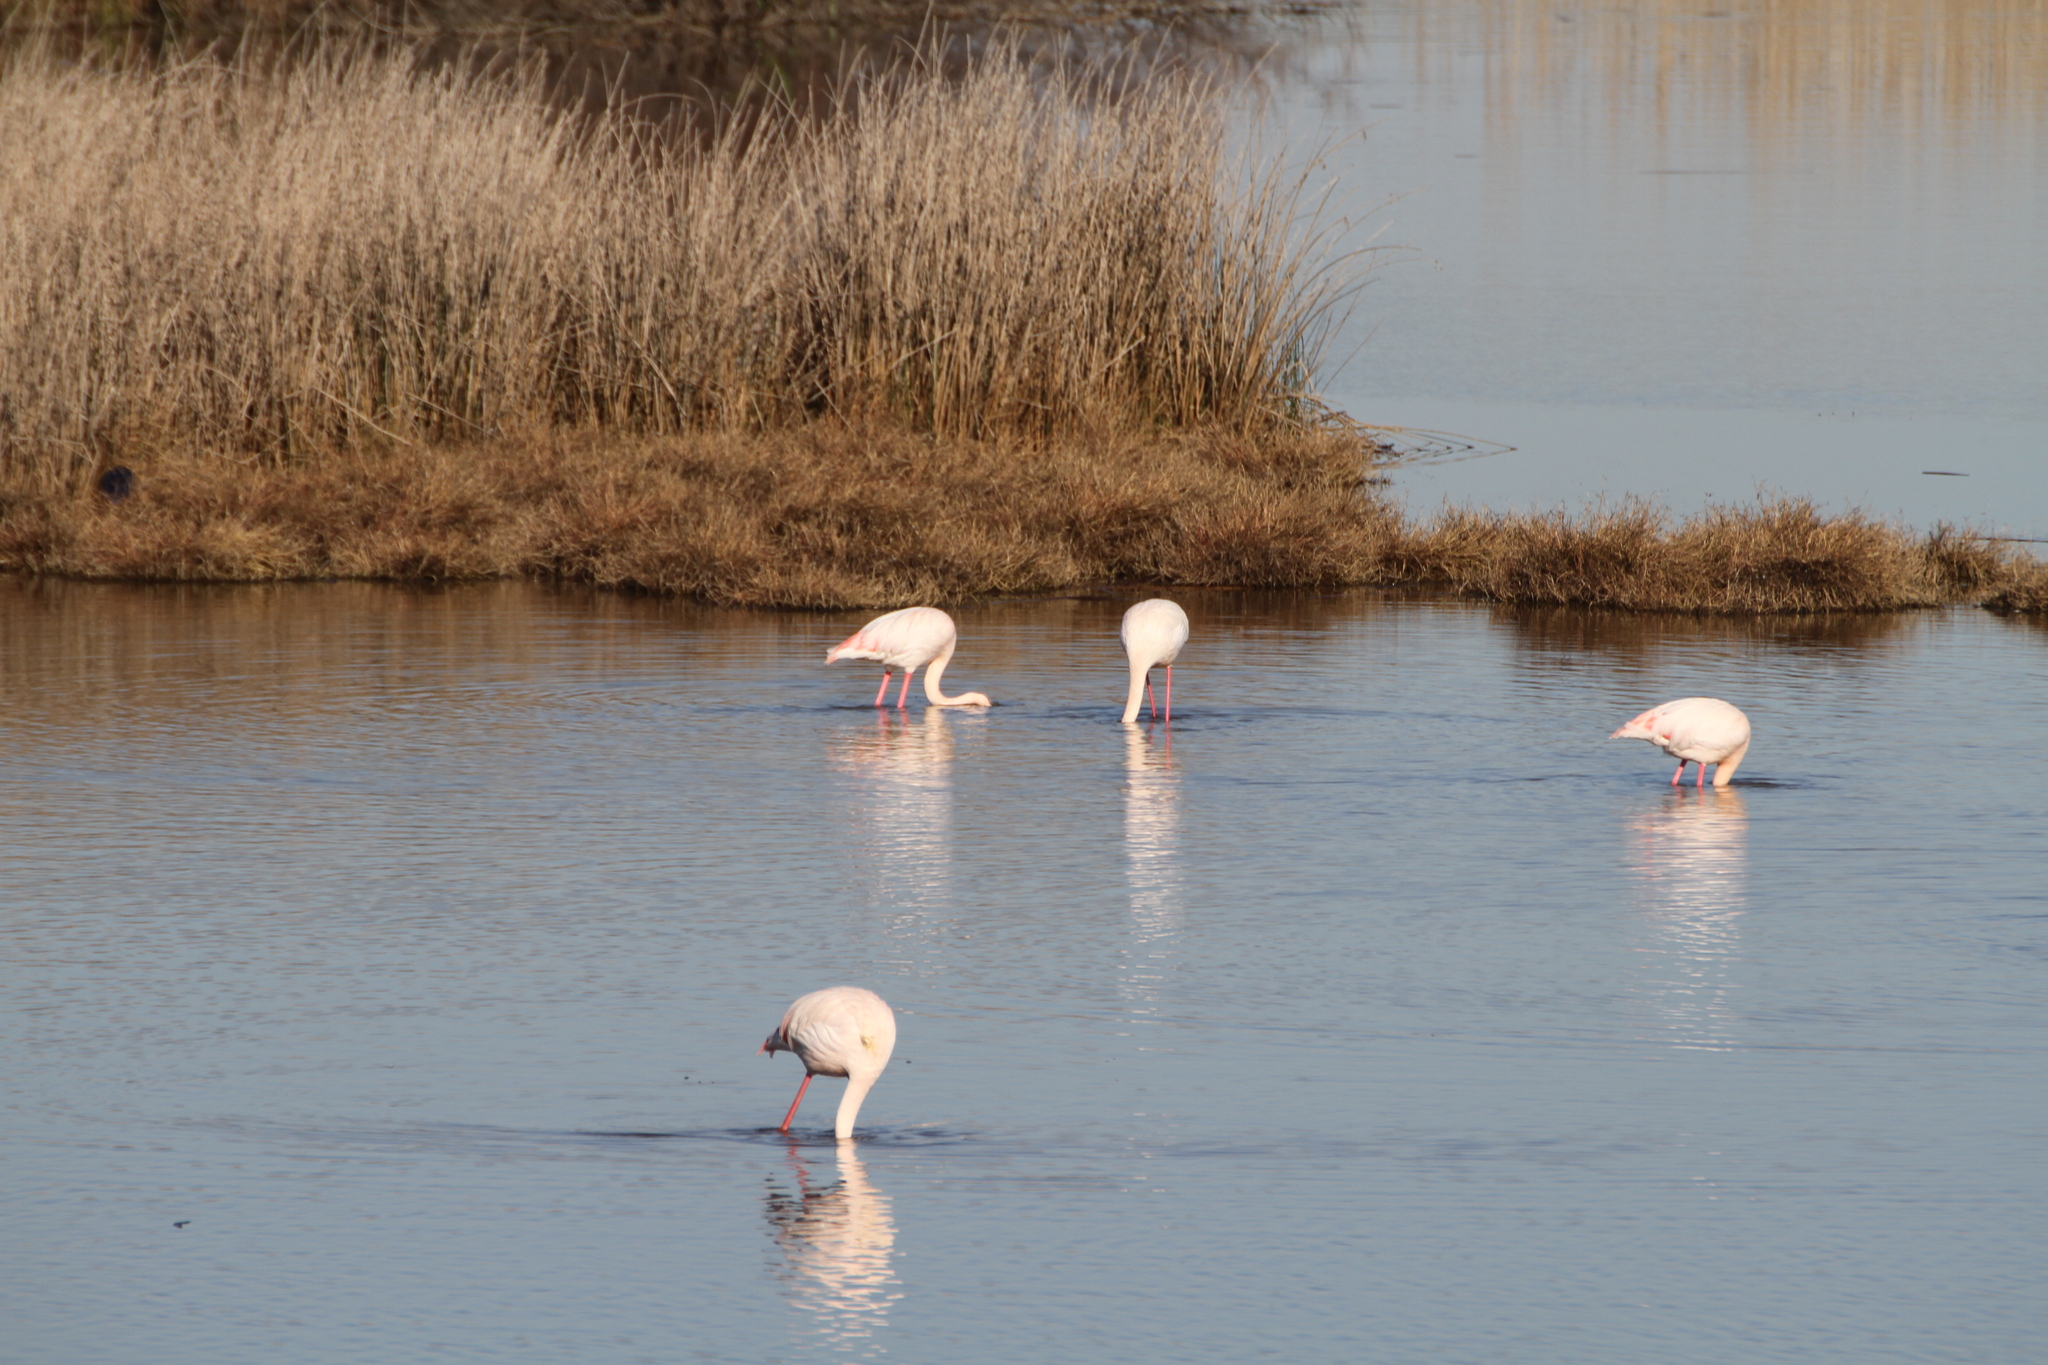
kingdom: Animalia
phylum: Chordata
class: Aves
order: Phoenicopteriformes
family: Phoenicopteridae
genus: Phoenicopterus
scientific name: Phoenicopterus roseus
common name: Greater flamingo
